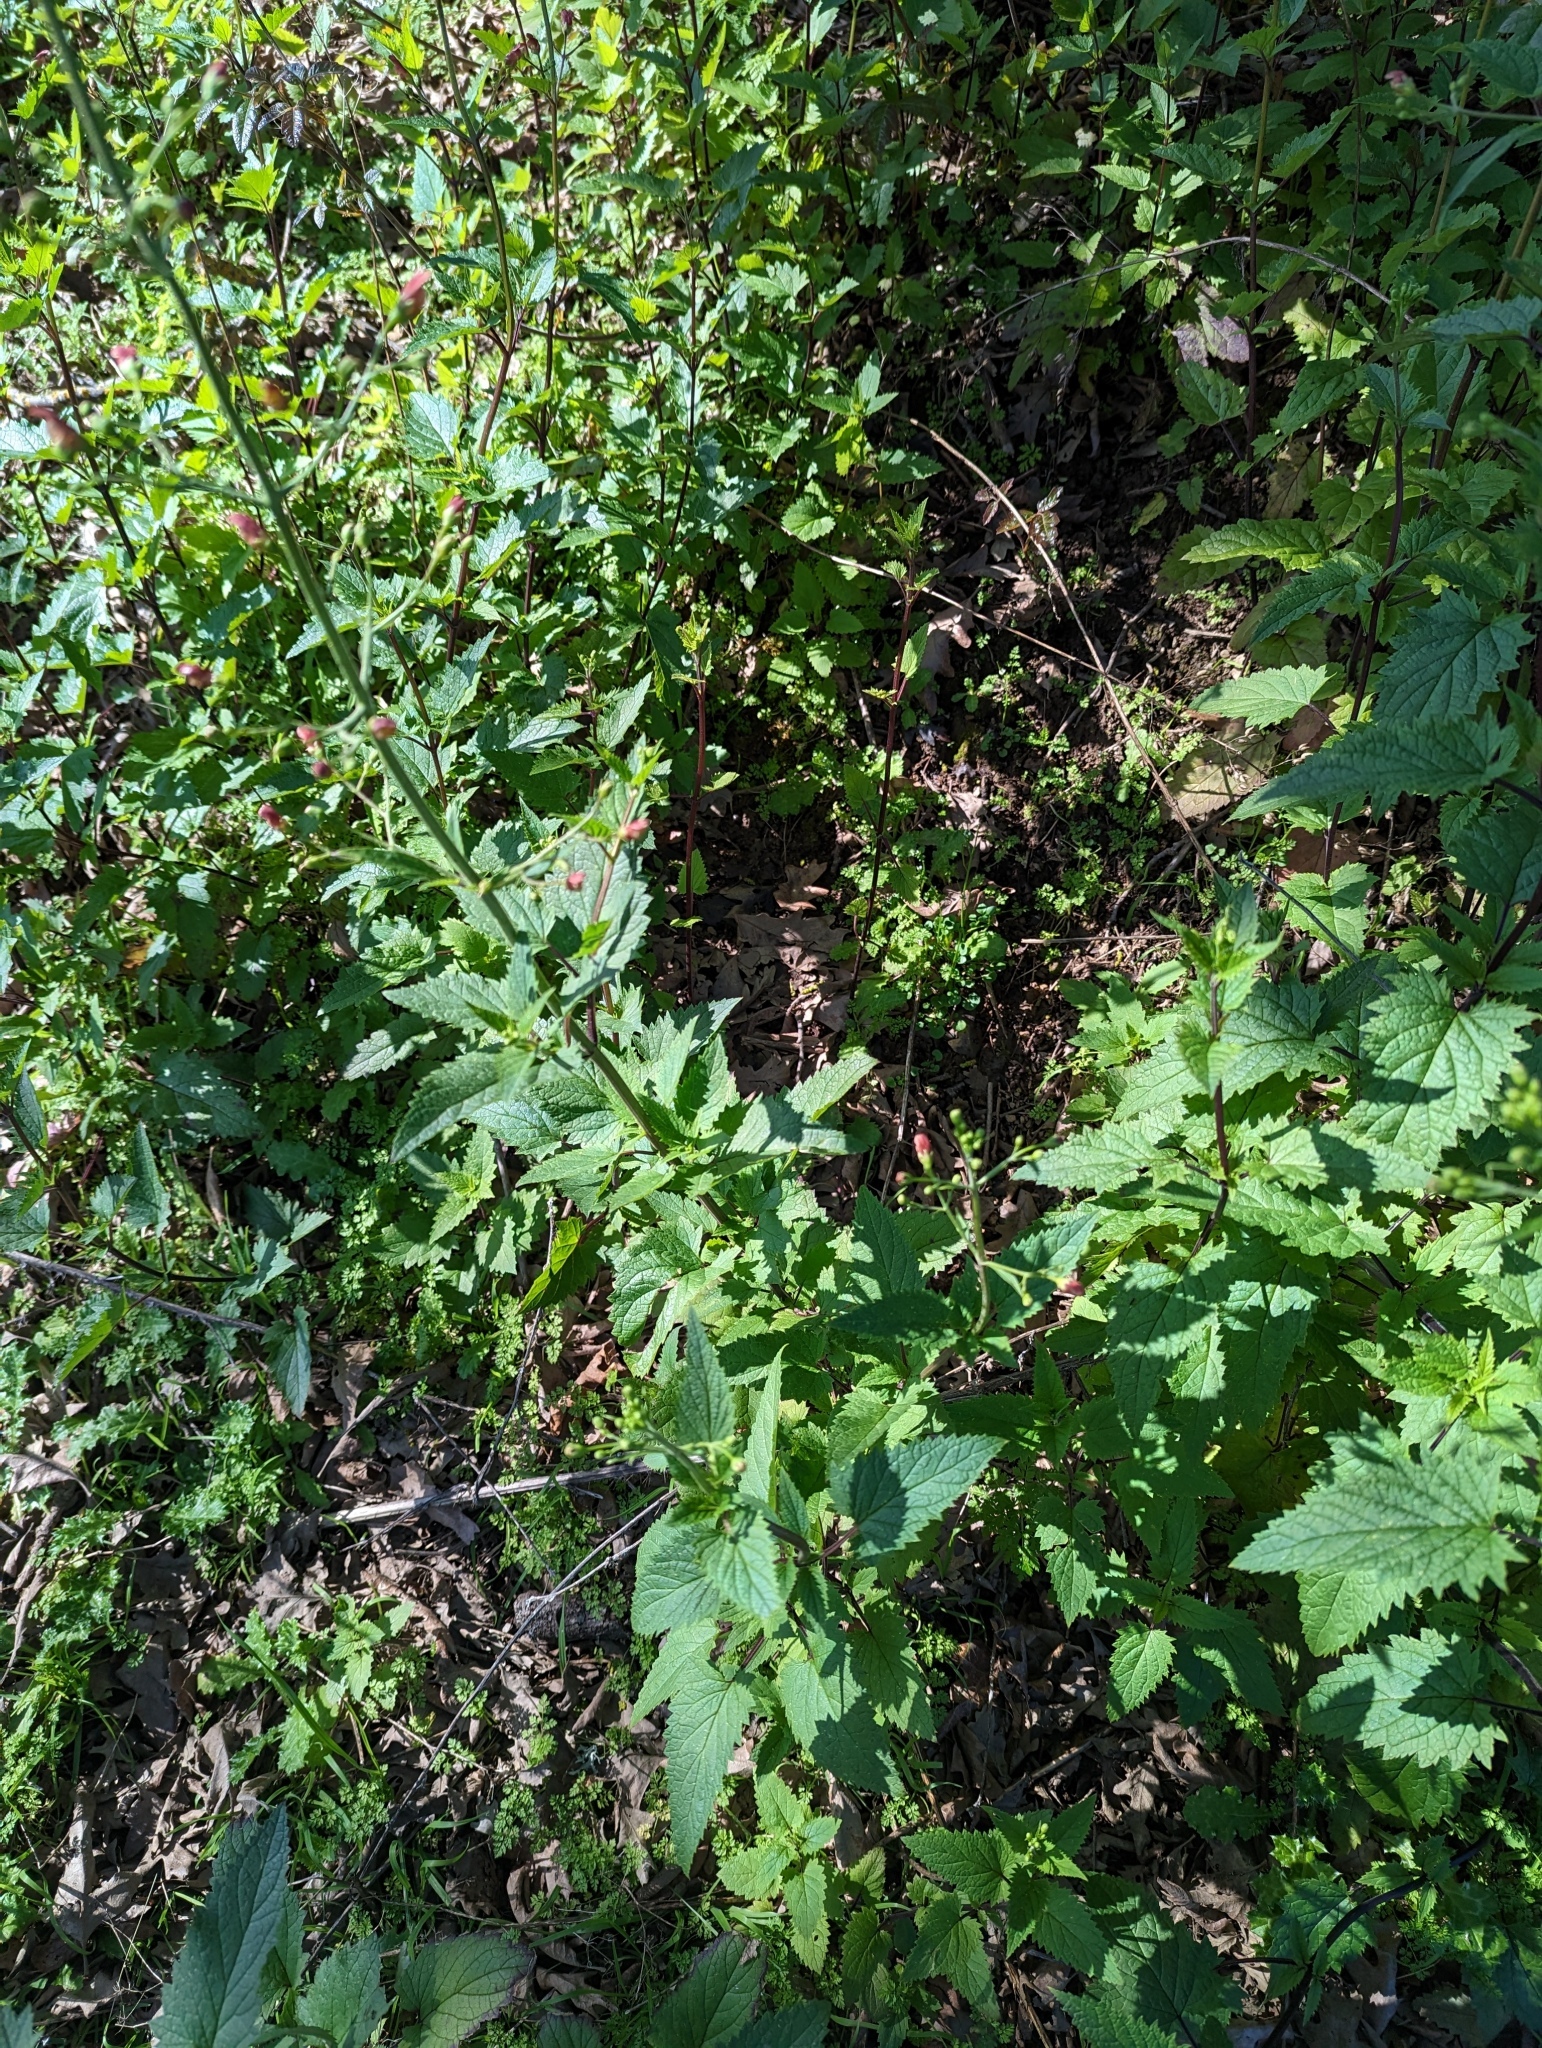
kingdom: Plantae
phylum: Tracheophyta
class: Magnoliopsida
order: Lamiales
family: Scrophulariaceae
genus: Scrophularia
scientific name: Scrophularia californica
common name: California figwort
